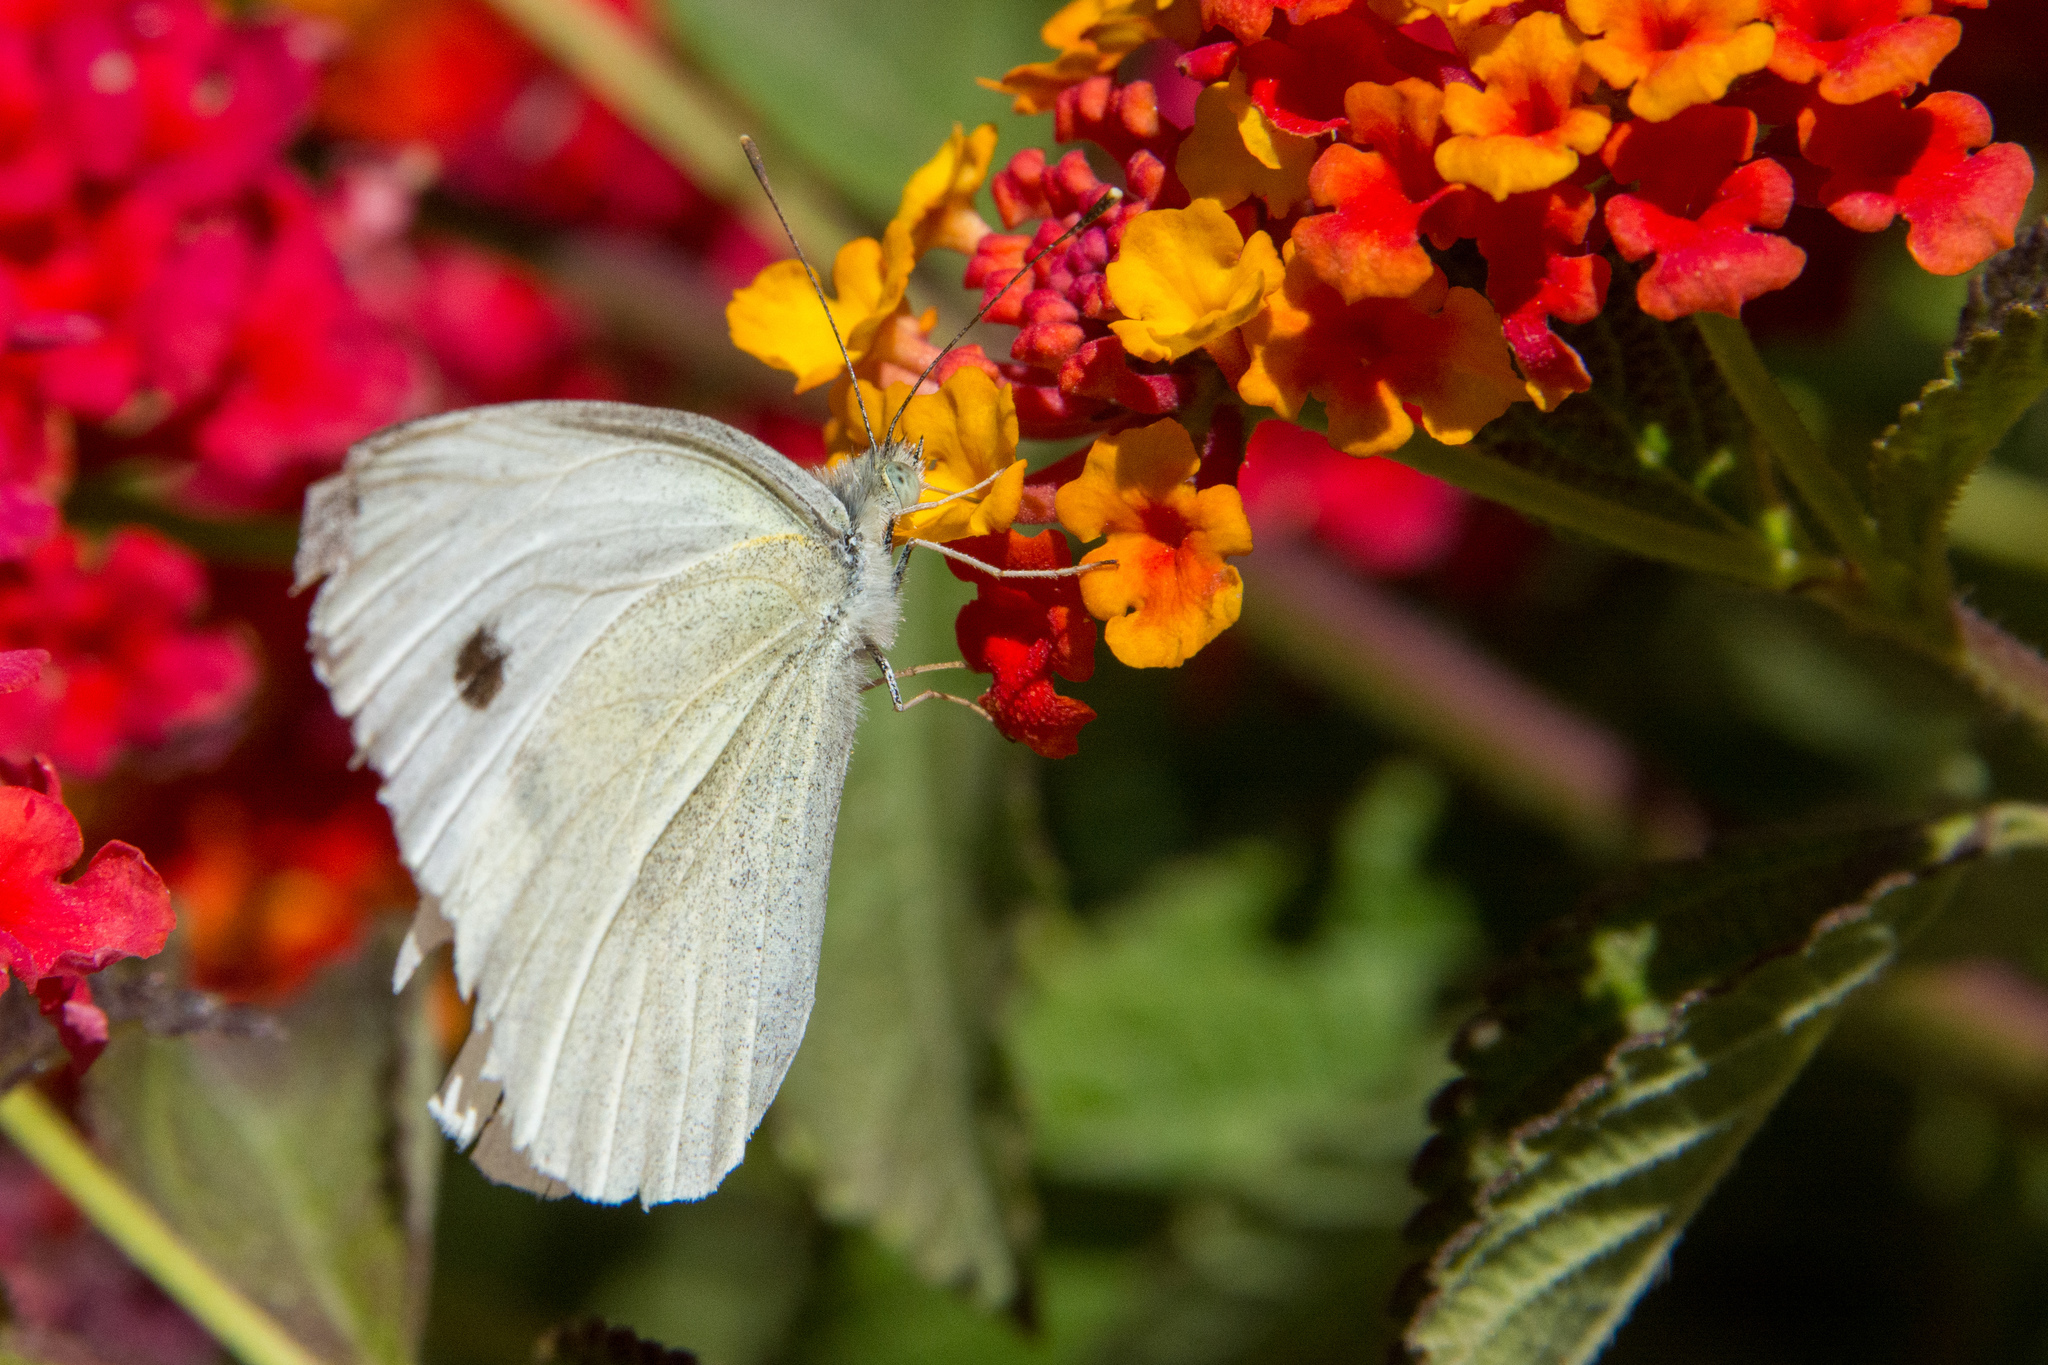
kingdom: Animalia
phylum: Arthropoda
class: Insecta
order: Lepidoptera
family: Pieridae
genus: Pieris
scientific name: Pieris rapae
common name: Small white
